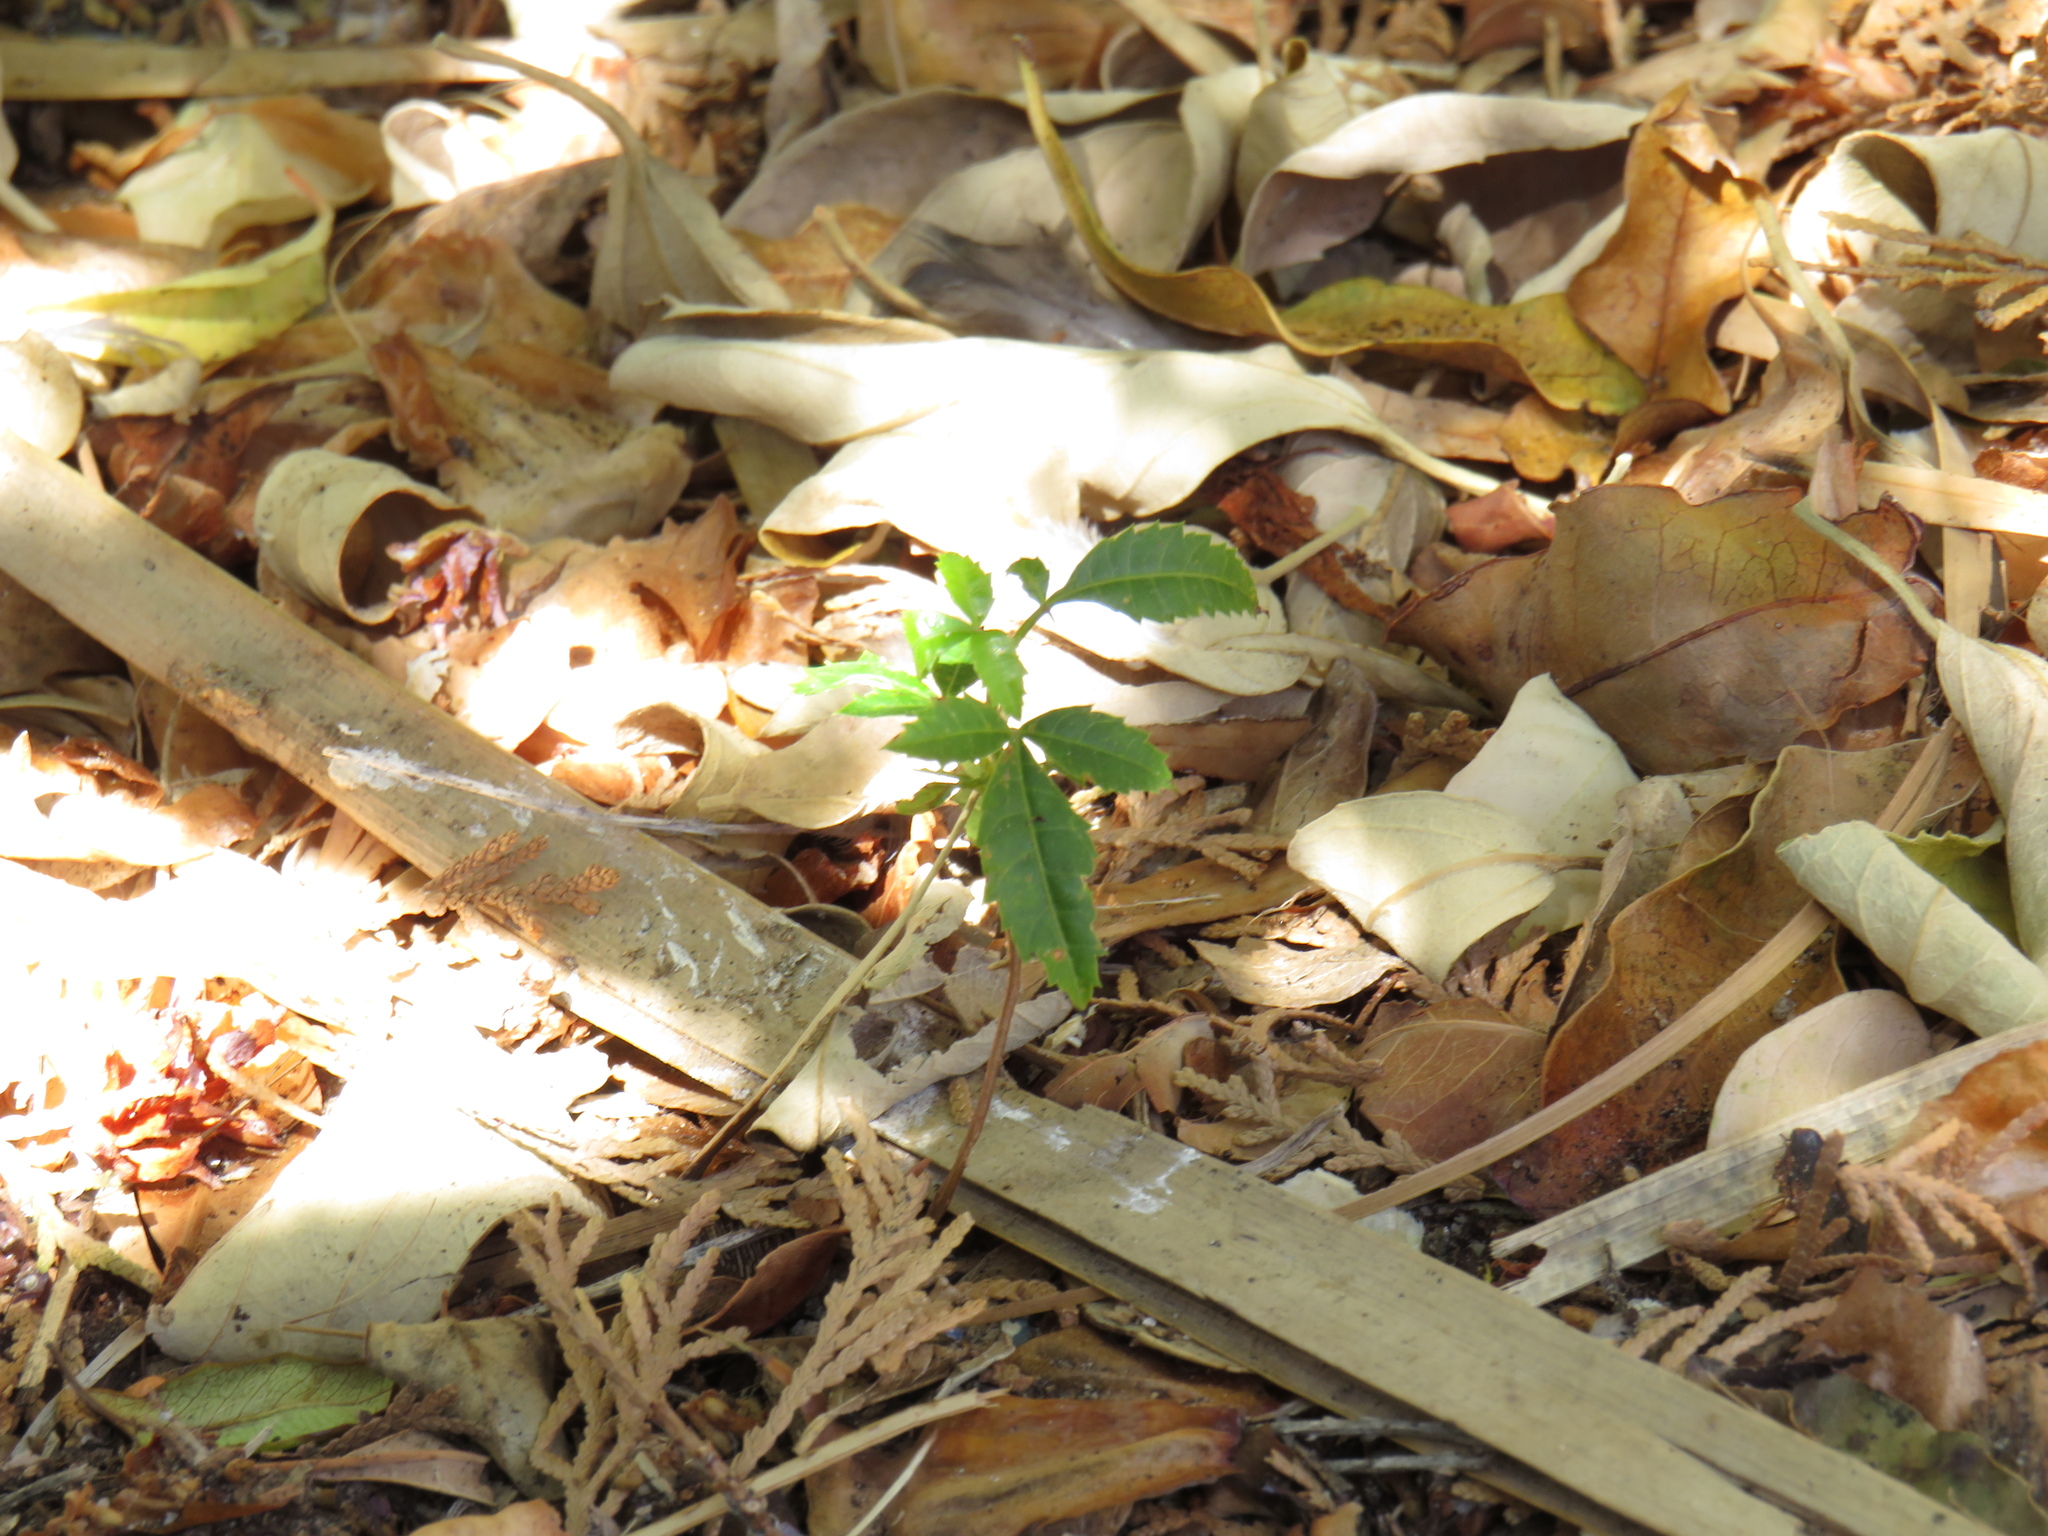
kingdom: Plantae
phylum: Tracheophyta
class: Magnoliopsida
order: Sapindales
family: Anacardiaceae
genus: Schinus
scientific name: Schinus terebinthifolia
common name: Brazilian peppertree
